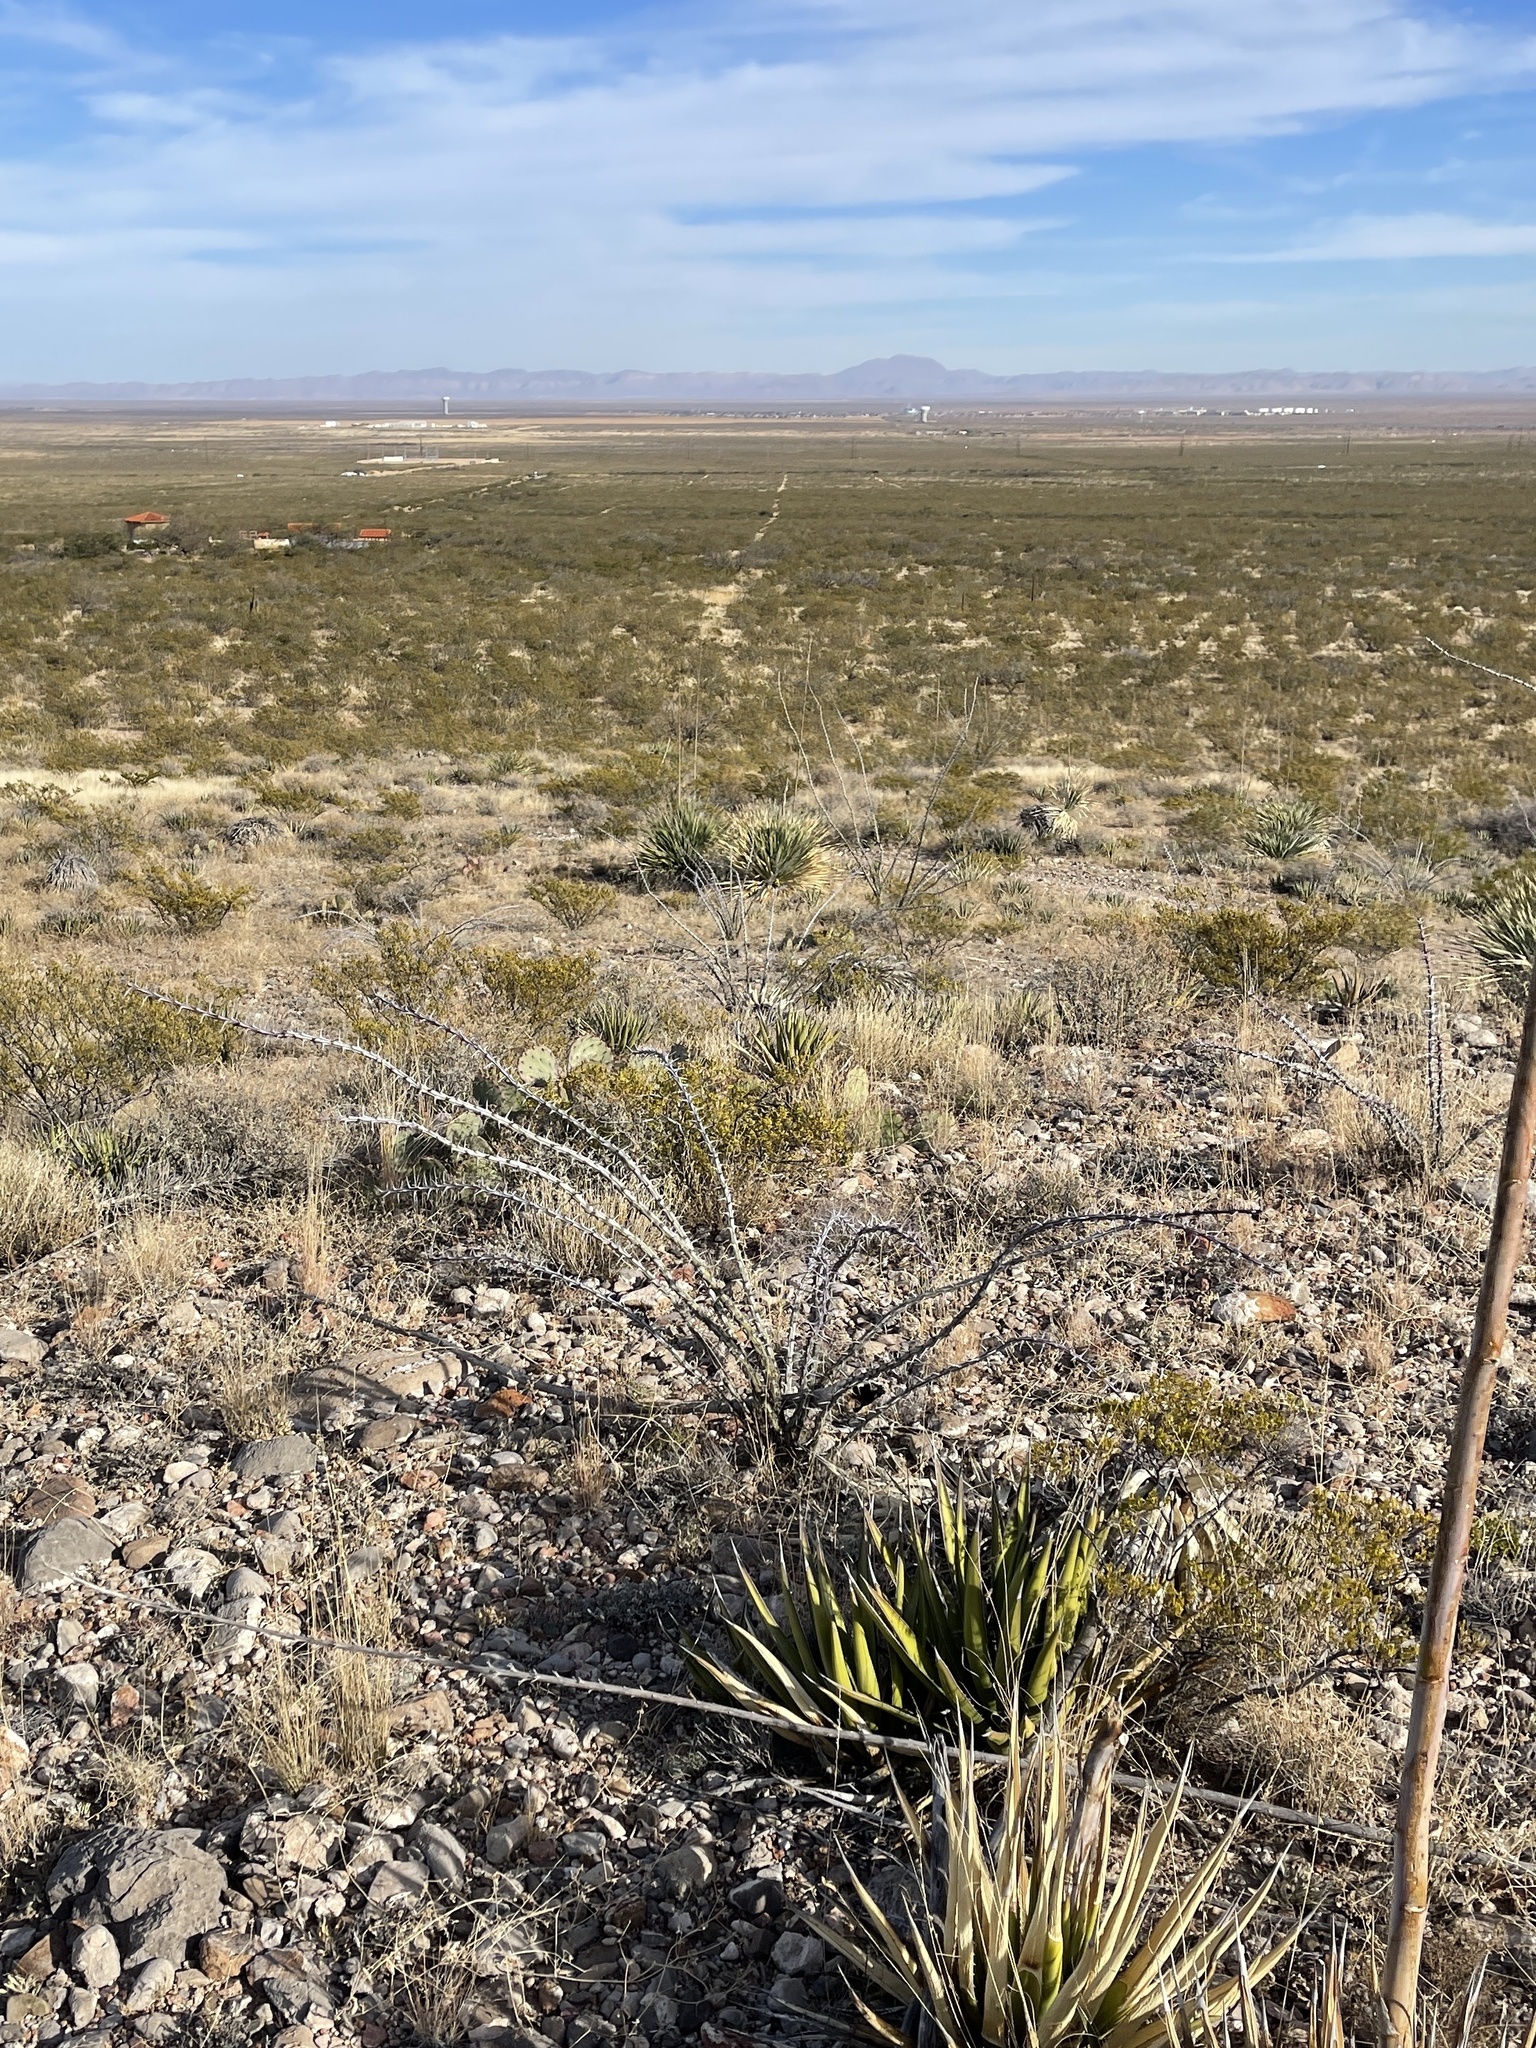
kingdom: Plantae
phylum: Tracheophyta
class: Magnoliopsida
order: Ericales
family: Fouquieriaceae
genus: Fouquieria
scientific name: Fouquieria splendens
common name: Vine-cactus
